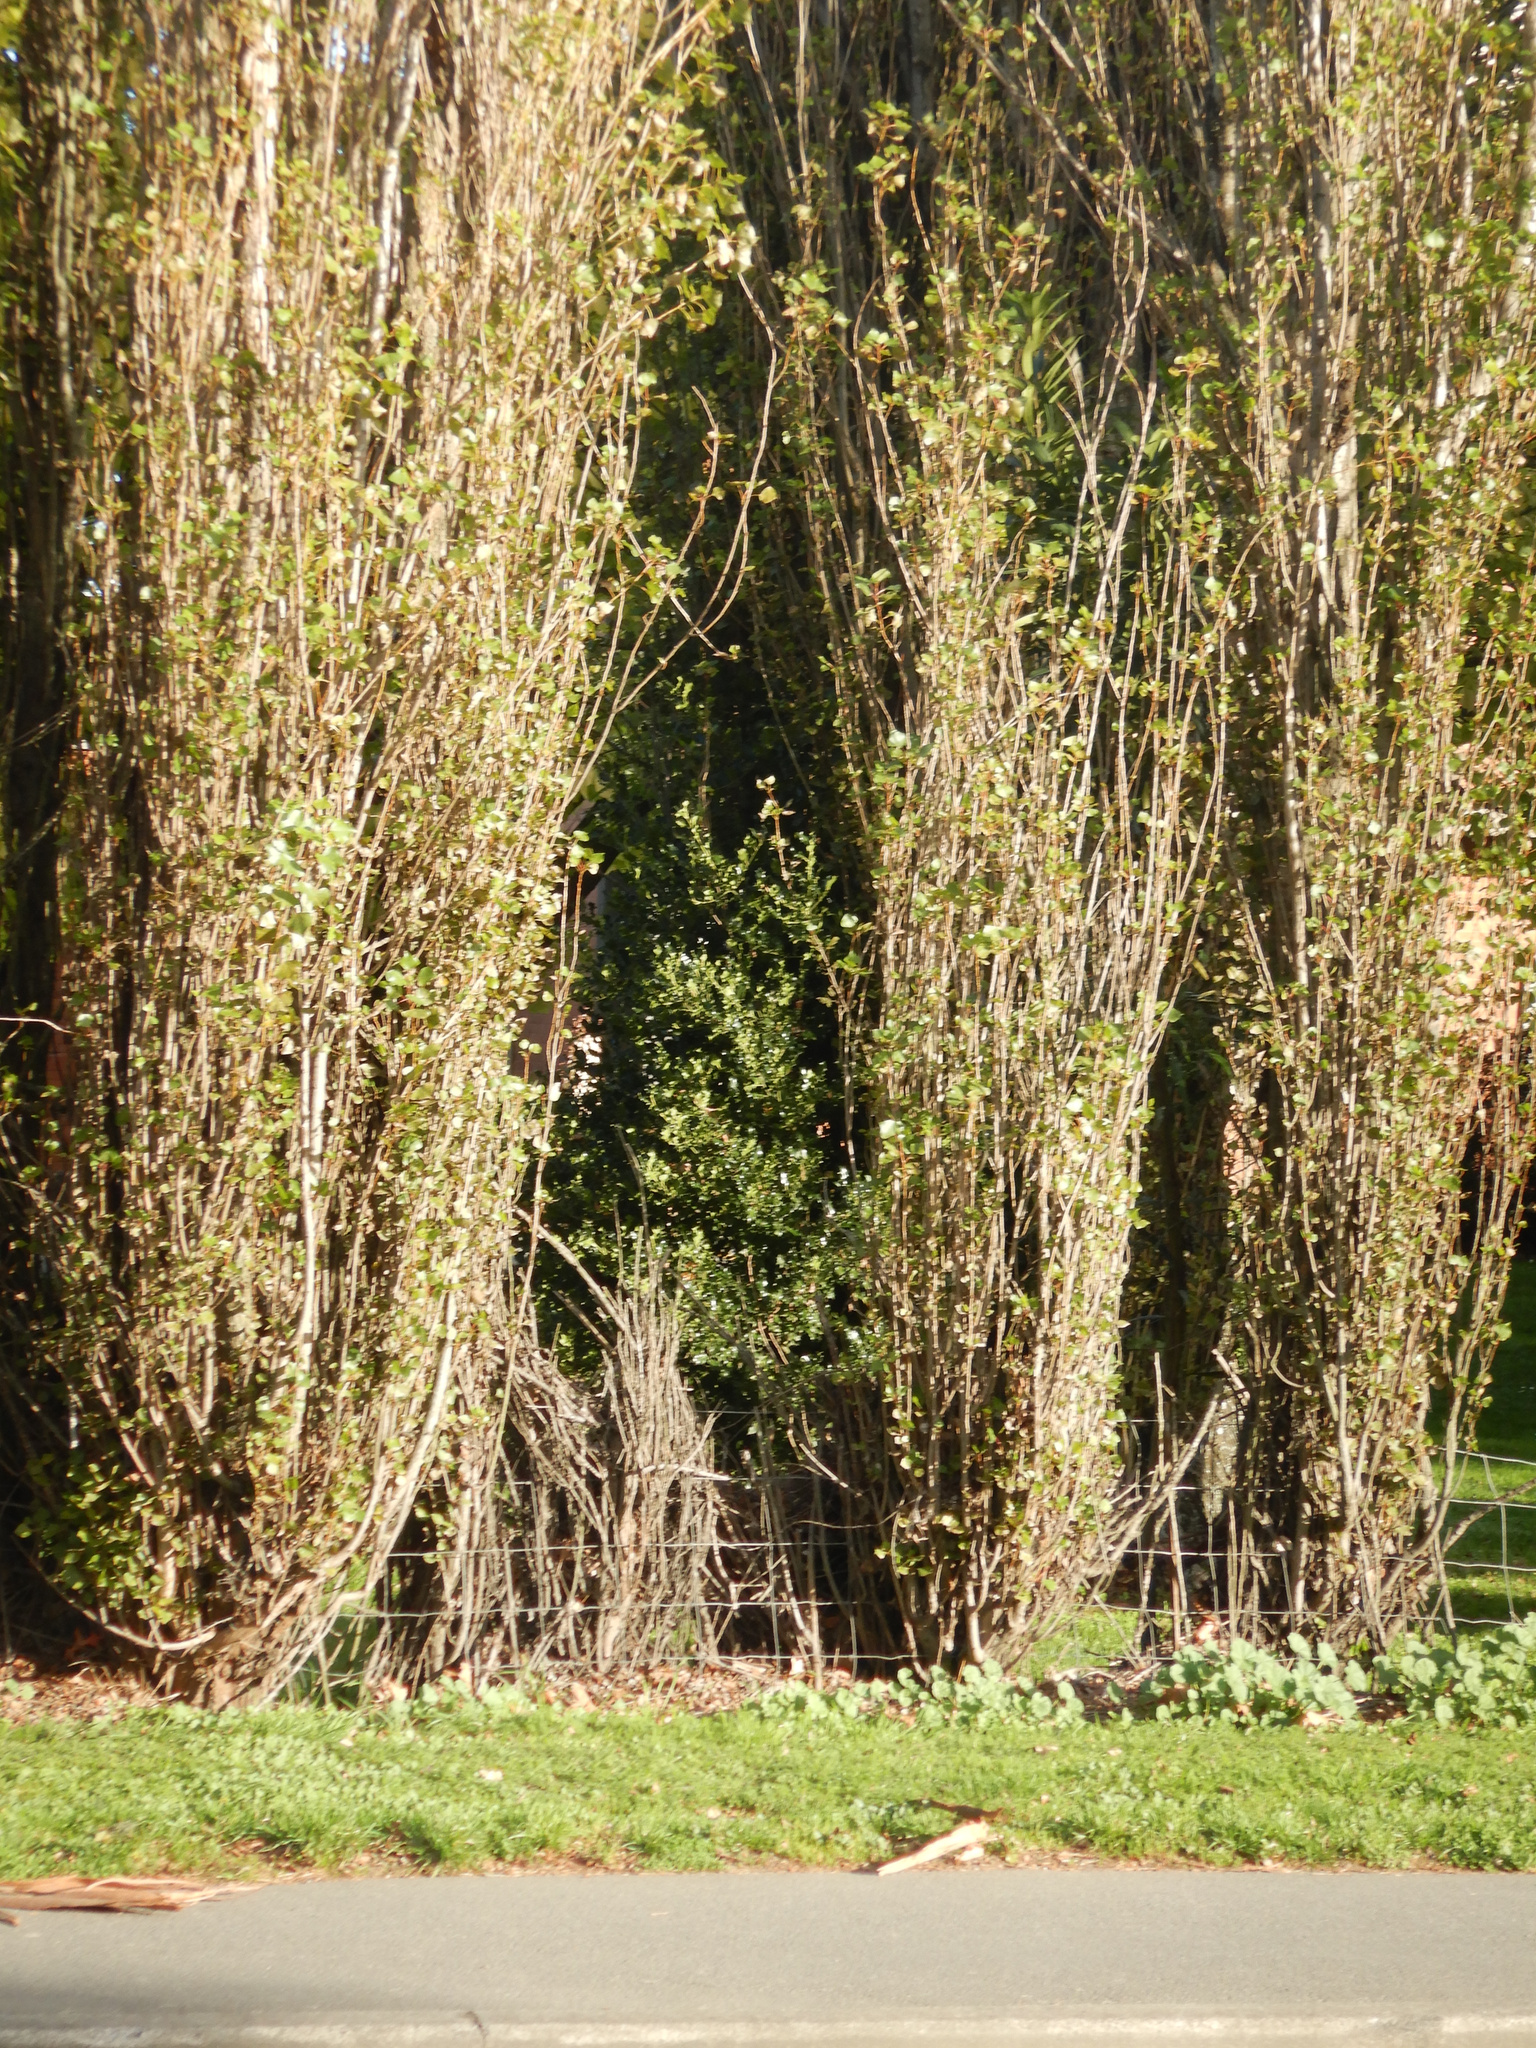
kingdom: Plantae
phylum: Tracheophyta
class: Magnoliopsida
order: Aquifoliales
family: Aquifoliaceae
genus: Ilex
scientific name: Ilex aquifolium
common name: English holly
